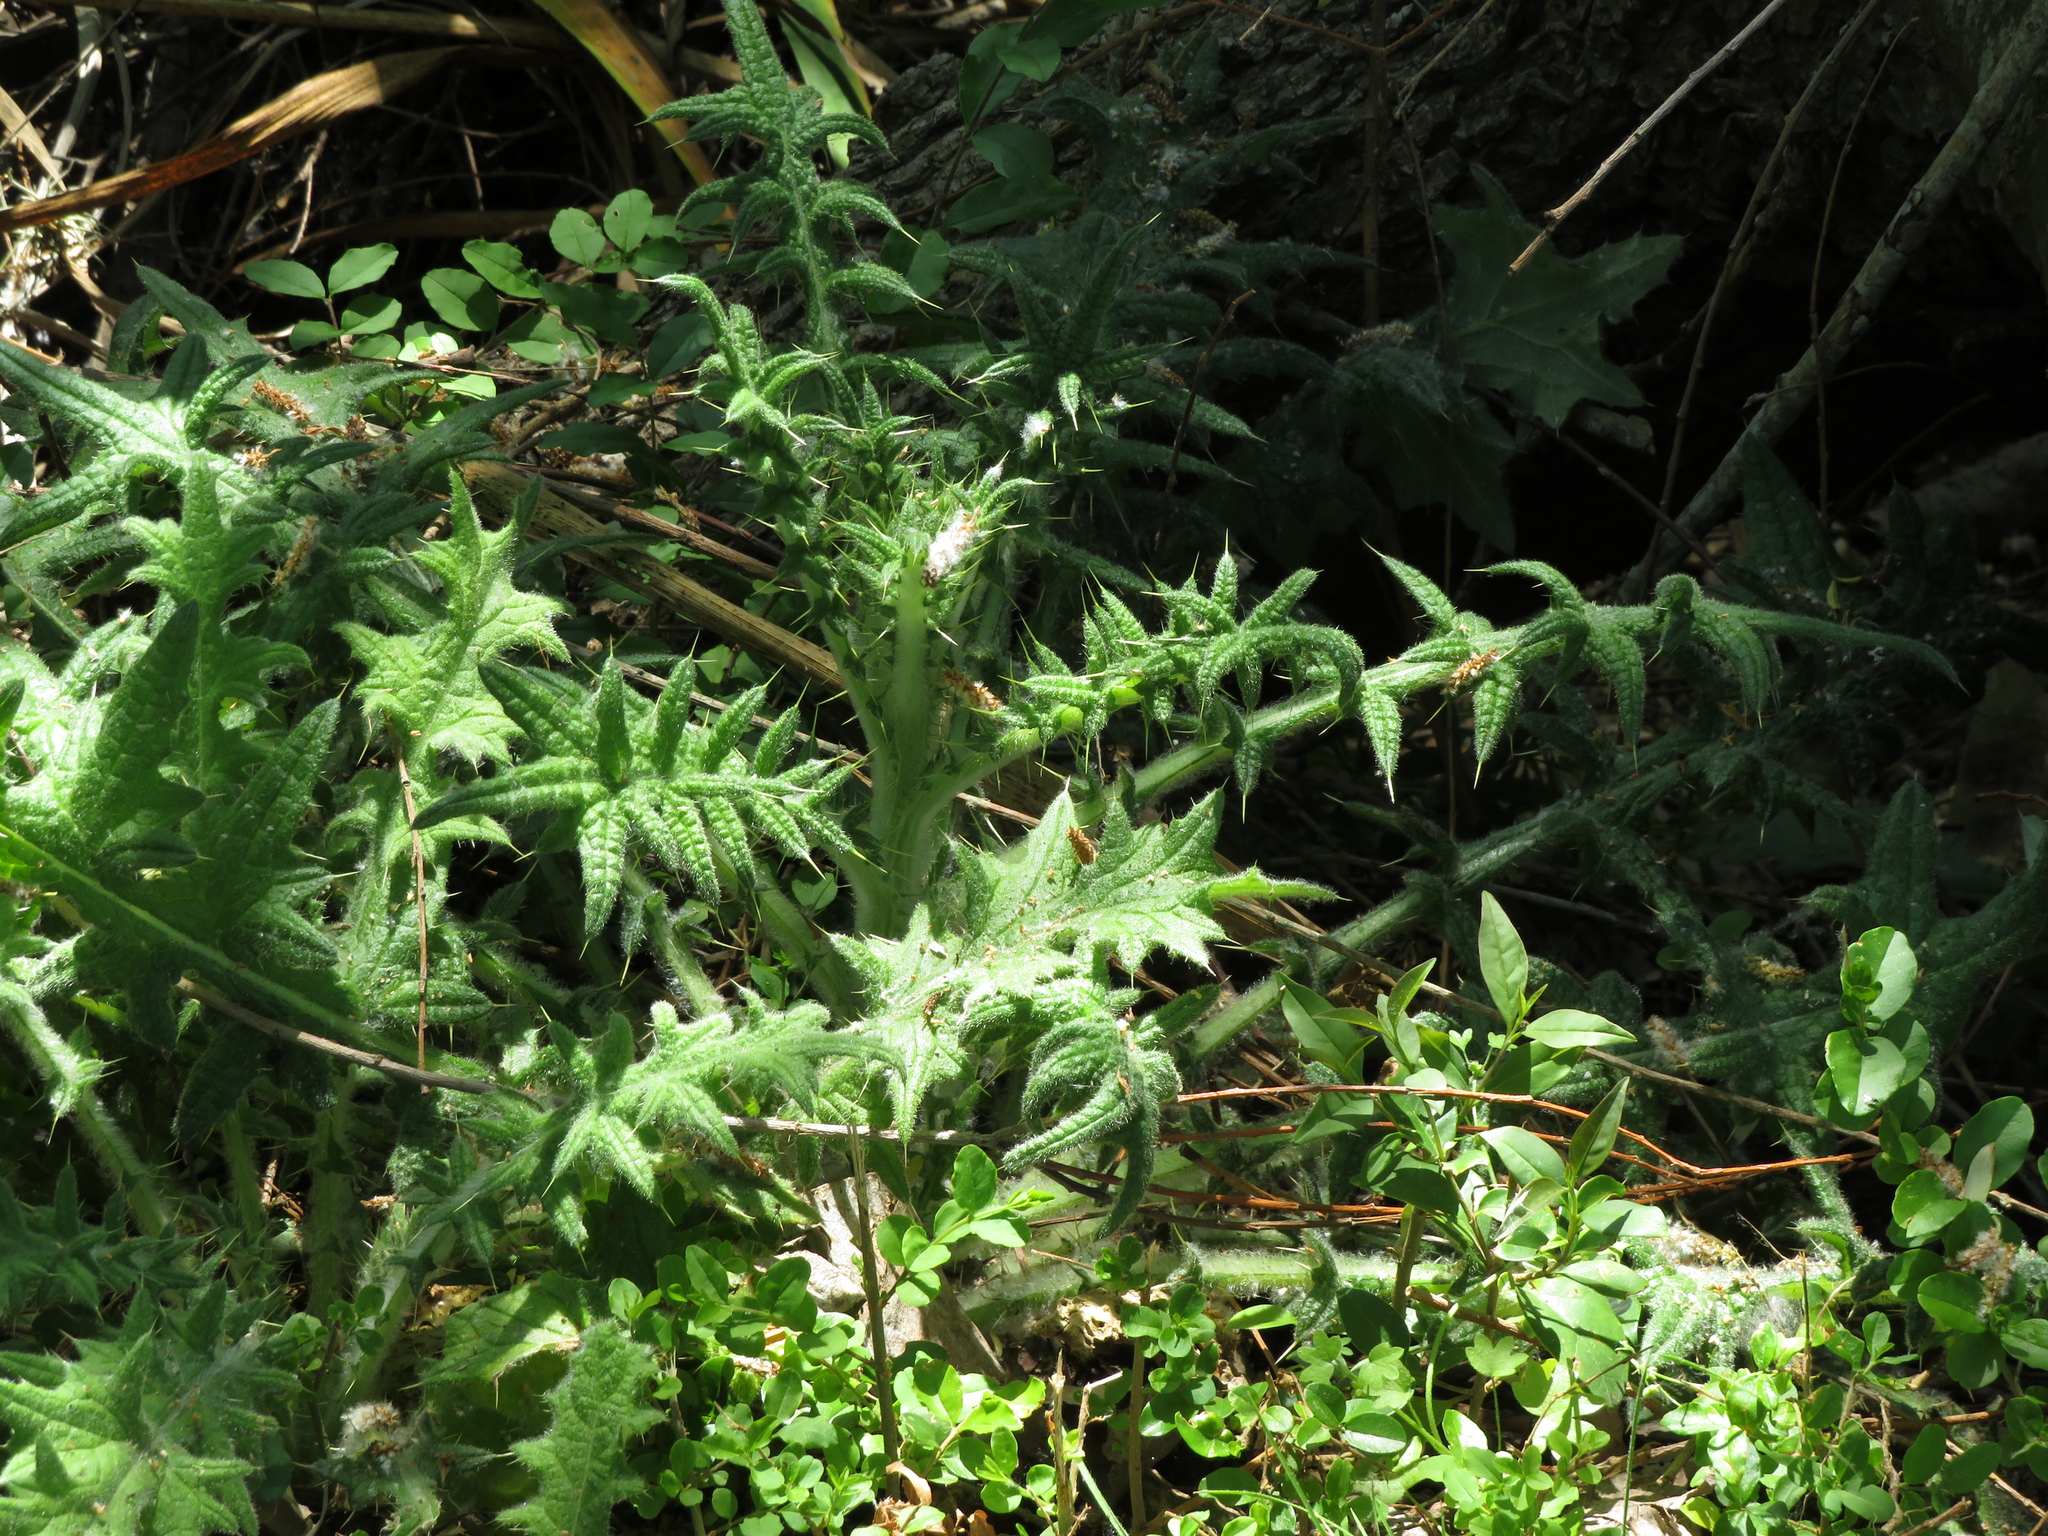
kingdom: Plantae
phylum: Tracheophyta
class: Magnoliopsida
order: Asterales
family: Asteraceae
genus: Cirsium
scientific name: Cirsium vulgare
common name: Bull thistle
